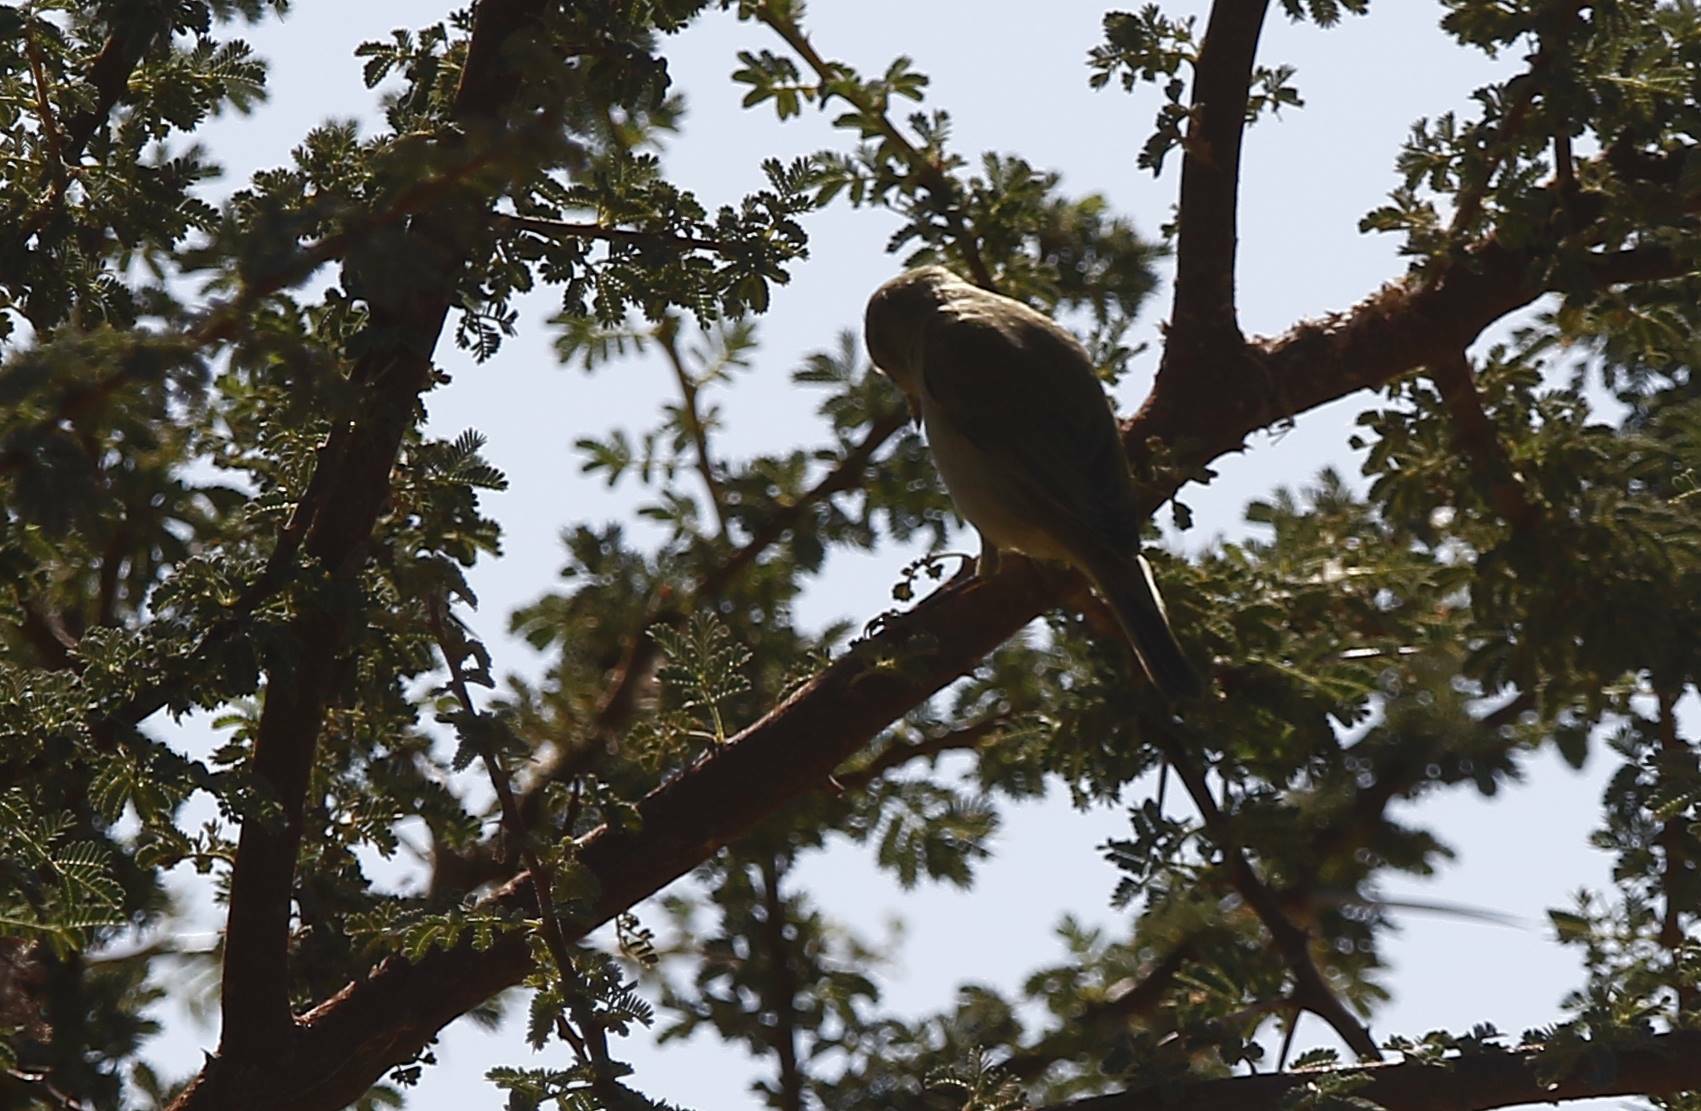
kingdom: Animalia
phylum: Chordata
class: Aves
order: Passeriformes
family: Phylloscopidae
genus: Phylloscopus
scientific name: Phylloscopus collybita
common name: Common chiffchaff
